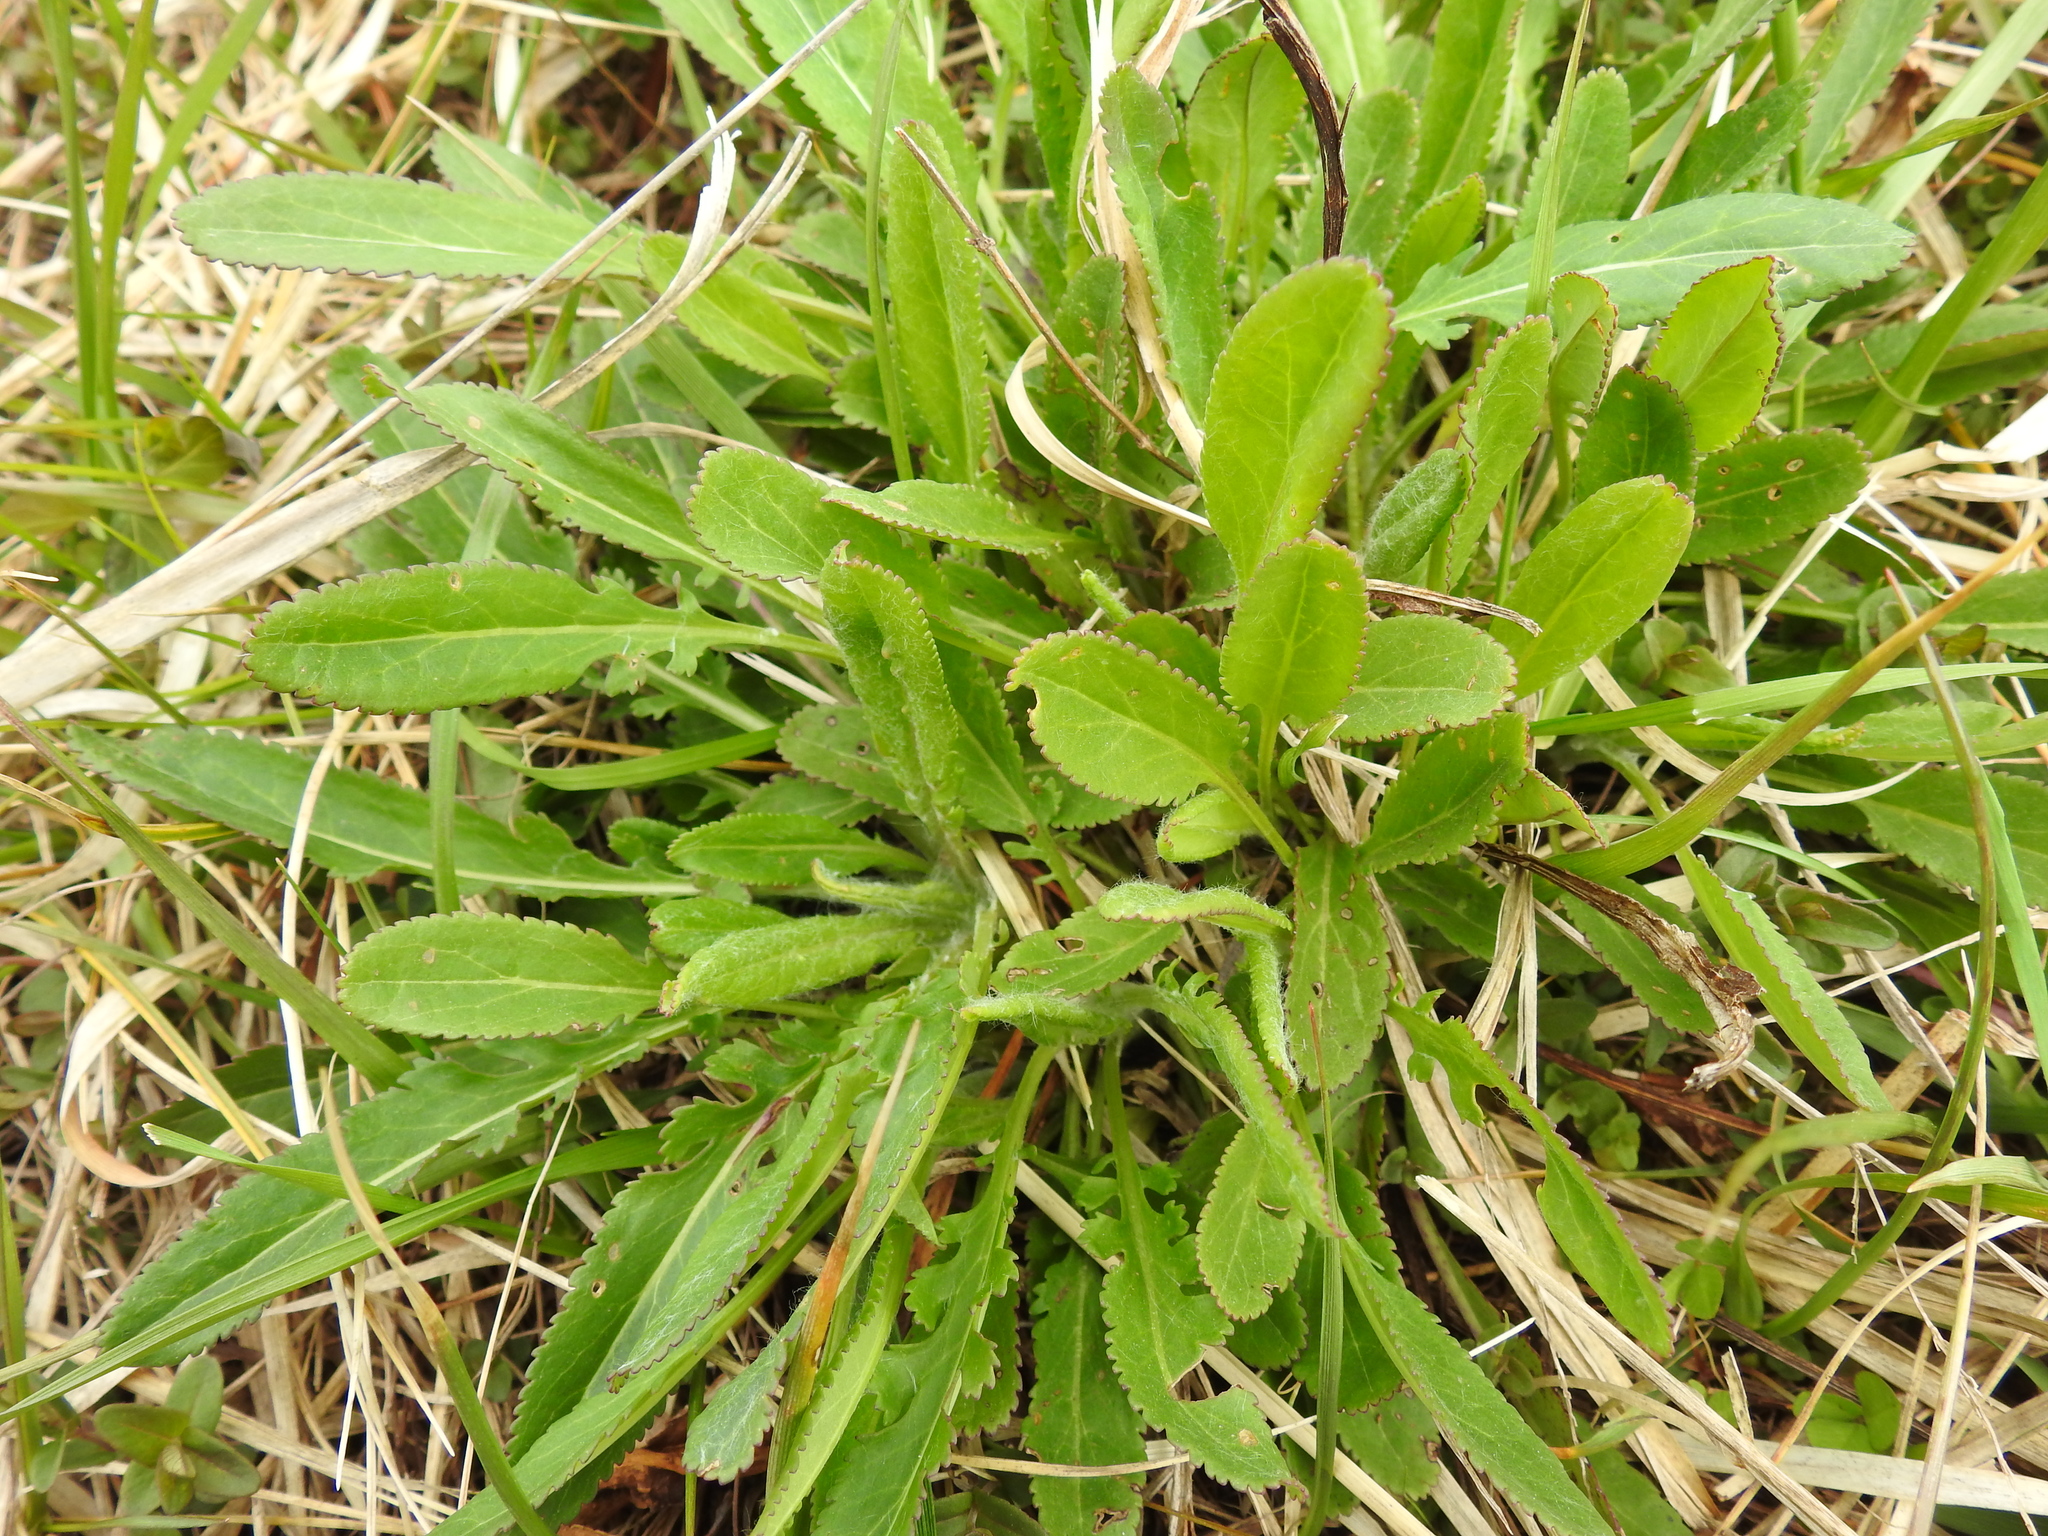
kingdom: Plantae
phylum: Tracheophyta
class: Magnoliopsida
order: Asterales
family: Asteraceae
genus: Packera
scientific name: Packera anonyma
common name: Small ragwort
